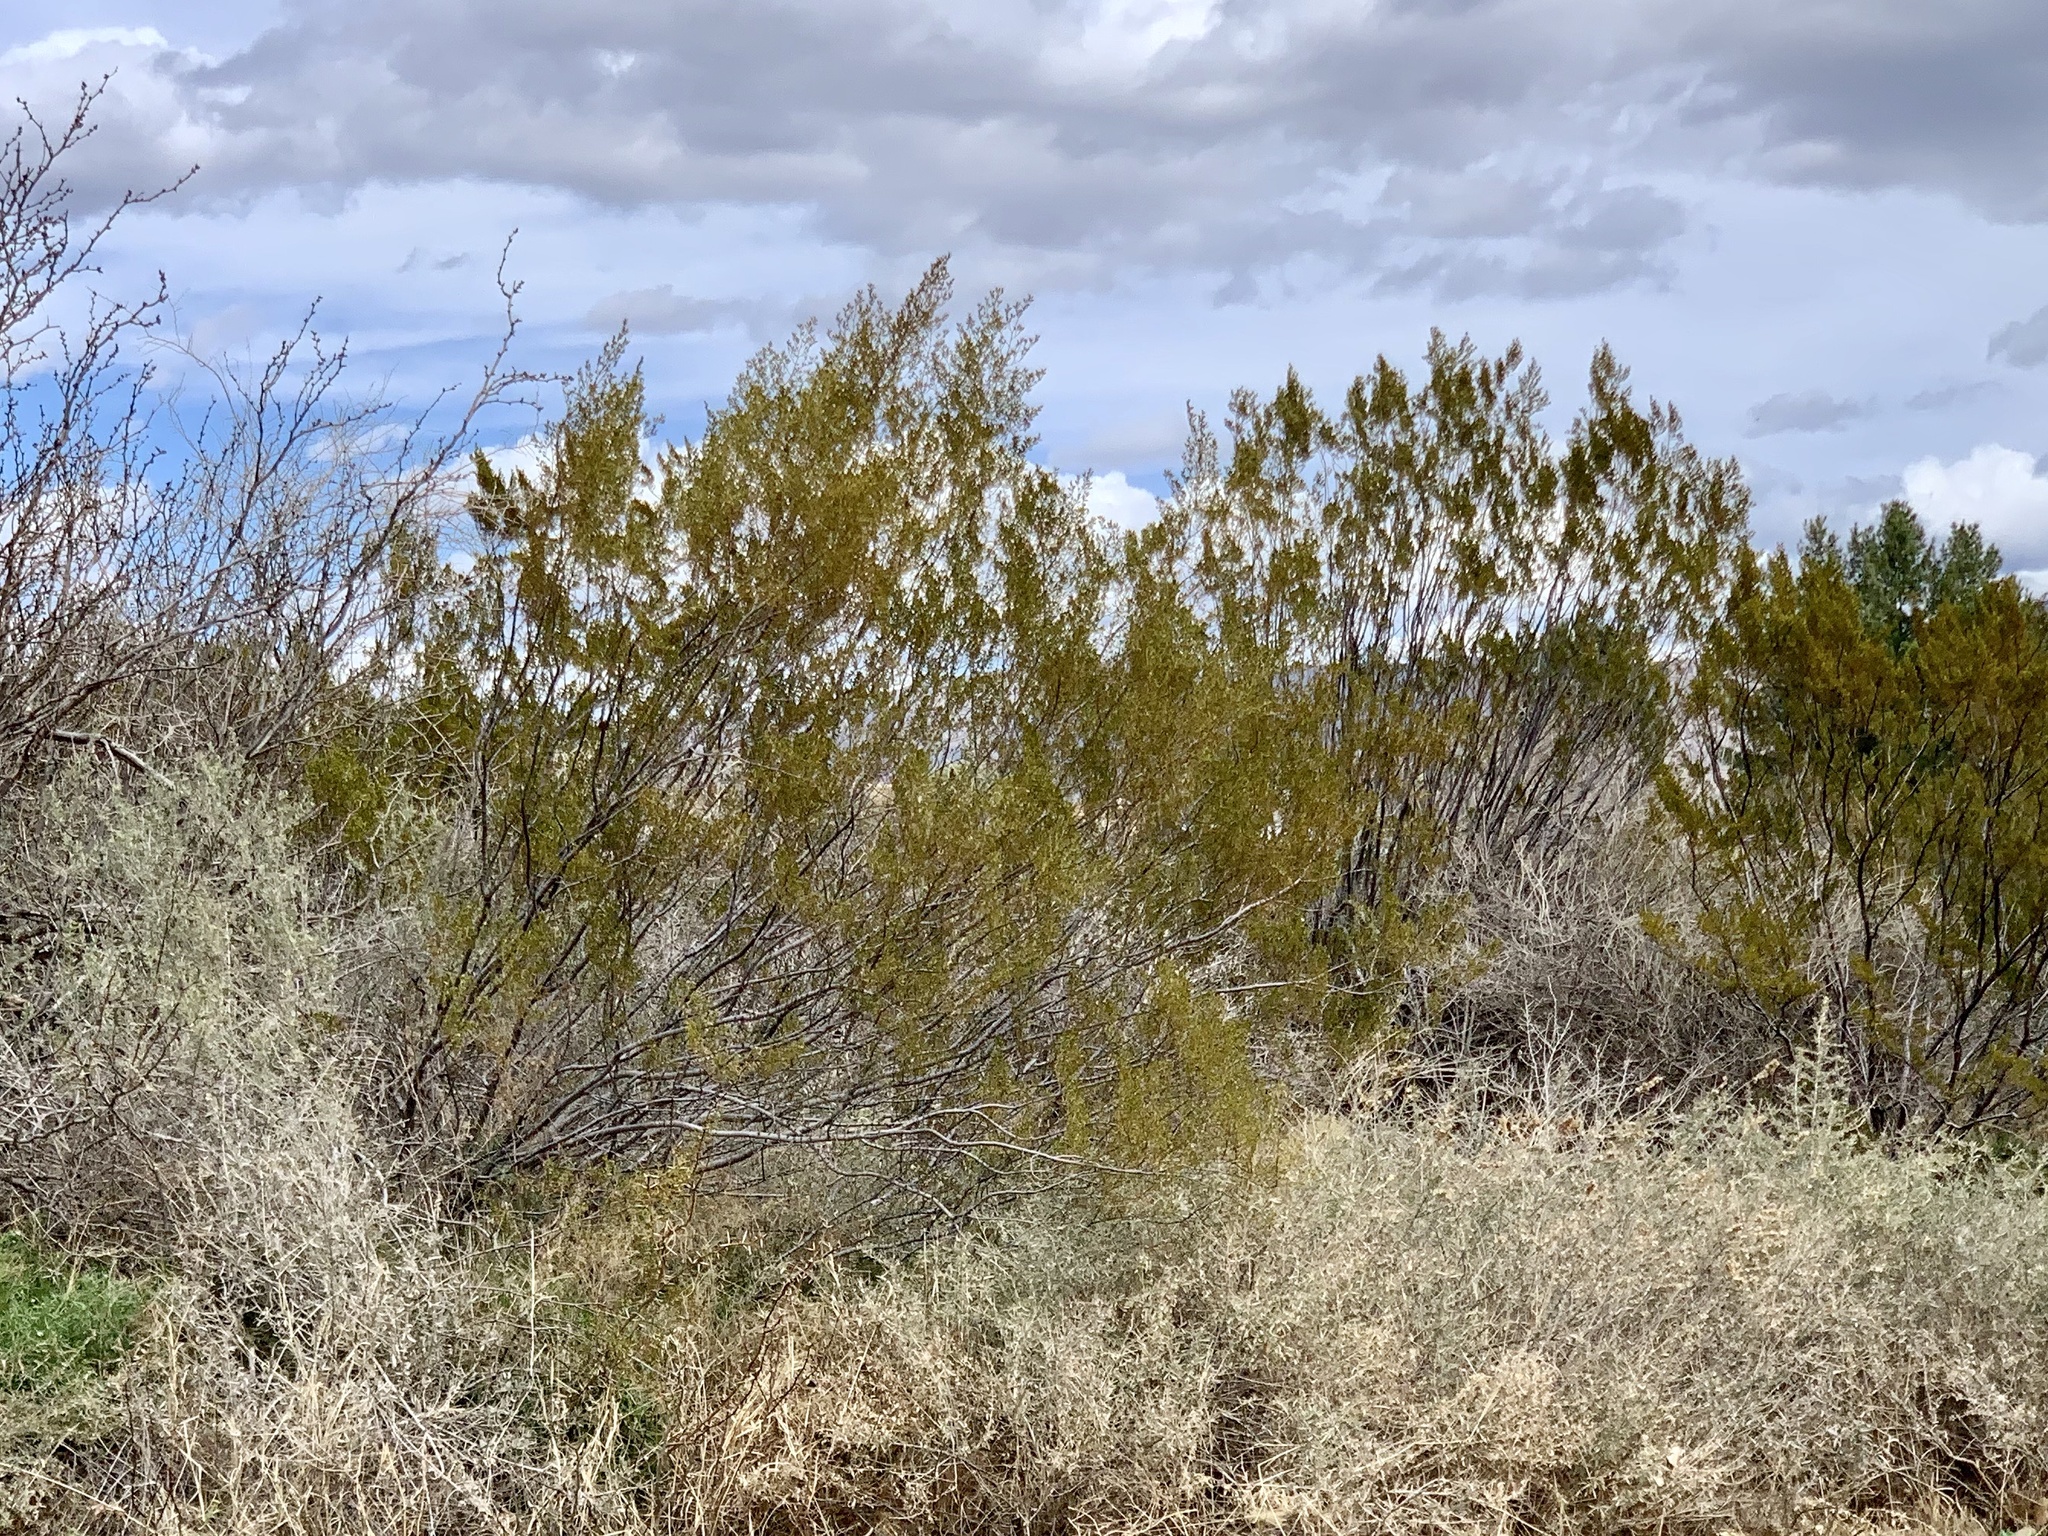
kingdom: Plantae
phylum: Tracheophyta
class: Magnoliopsida
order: Zygophyllales
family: Zygophyllaceae
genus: Larrea
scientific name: Larrea tridentata
